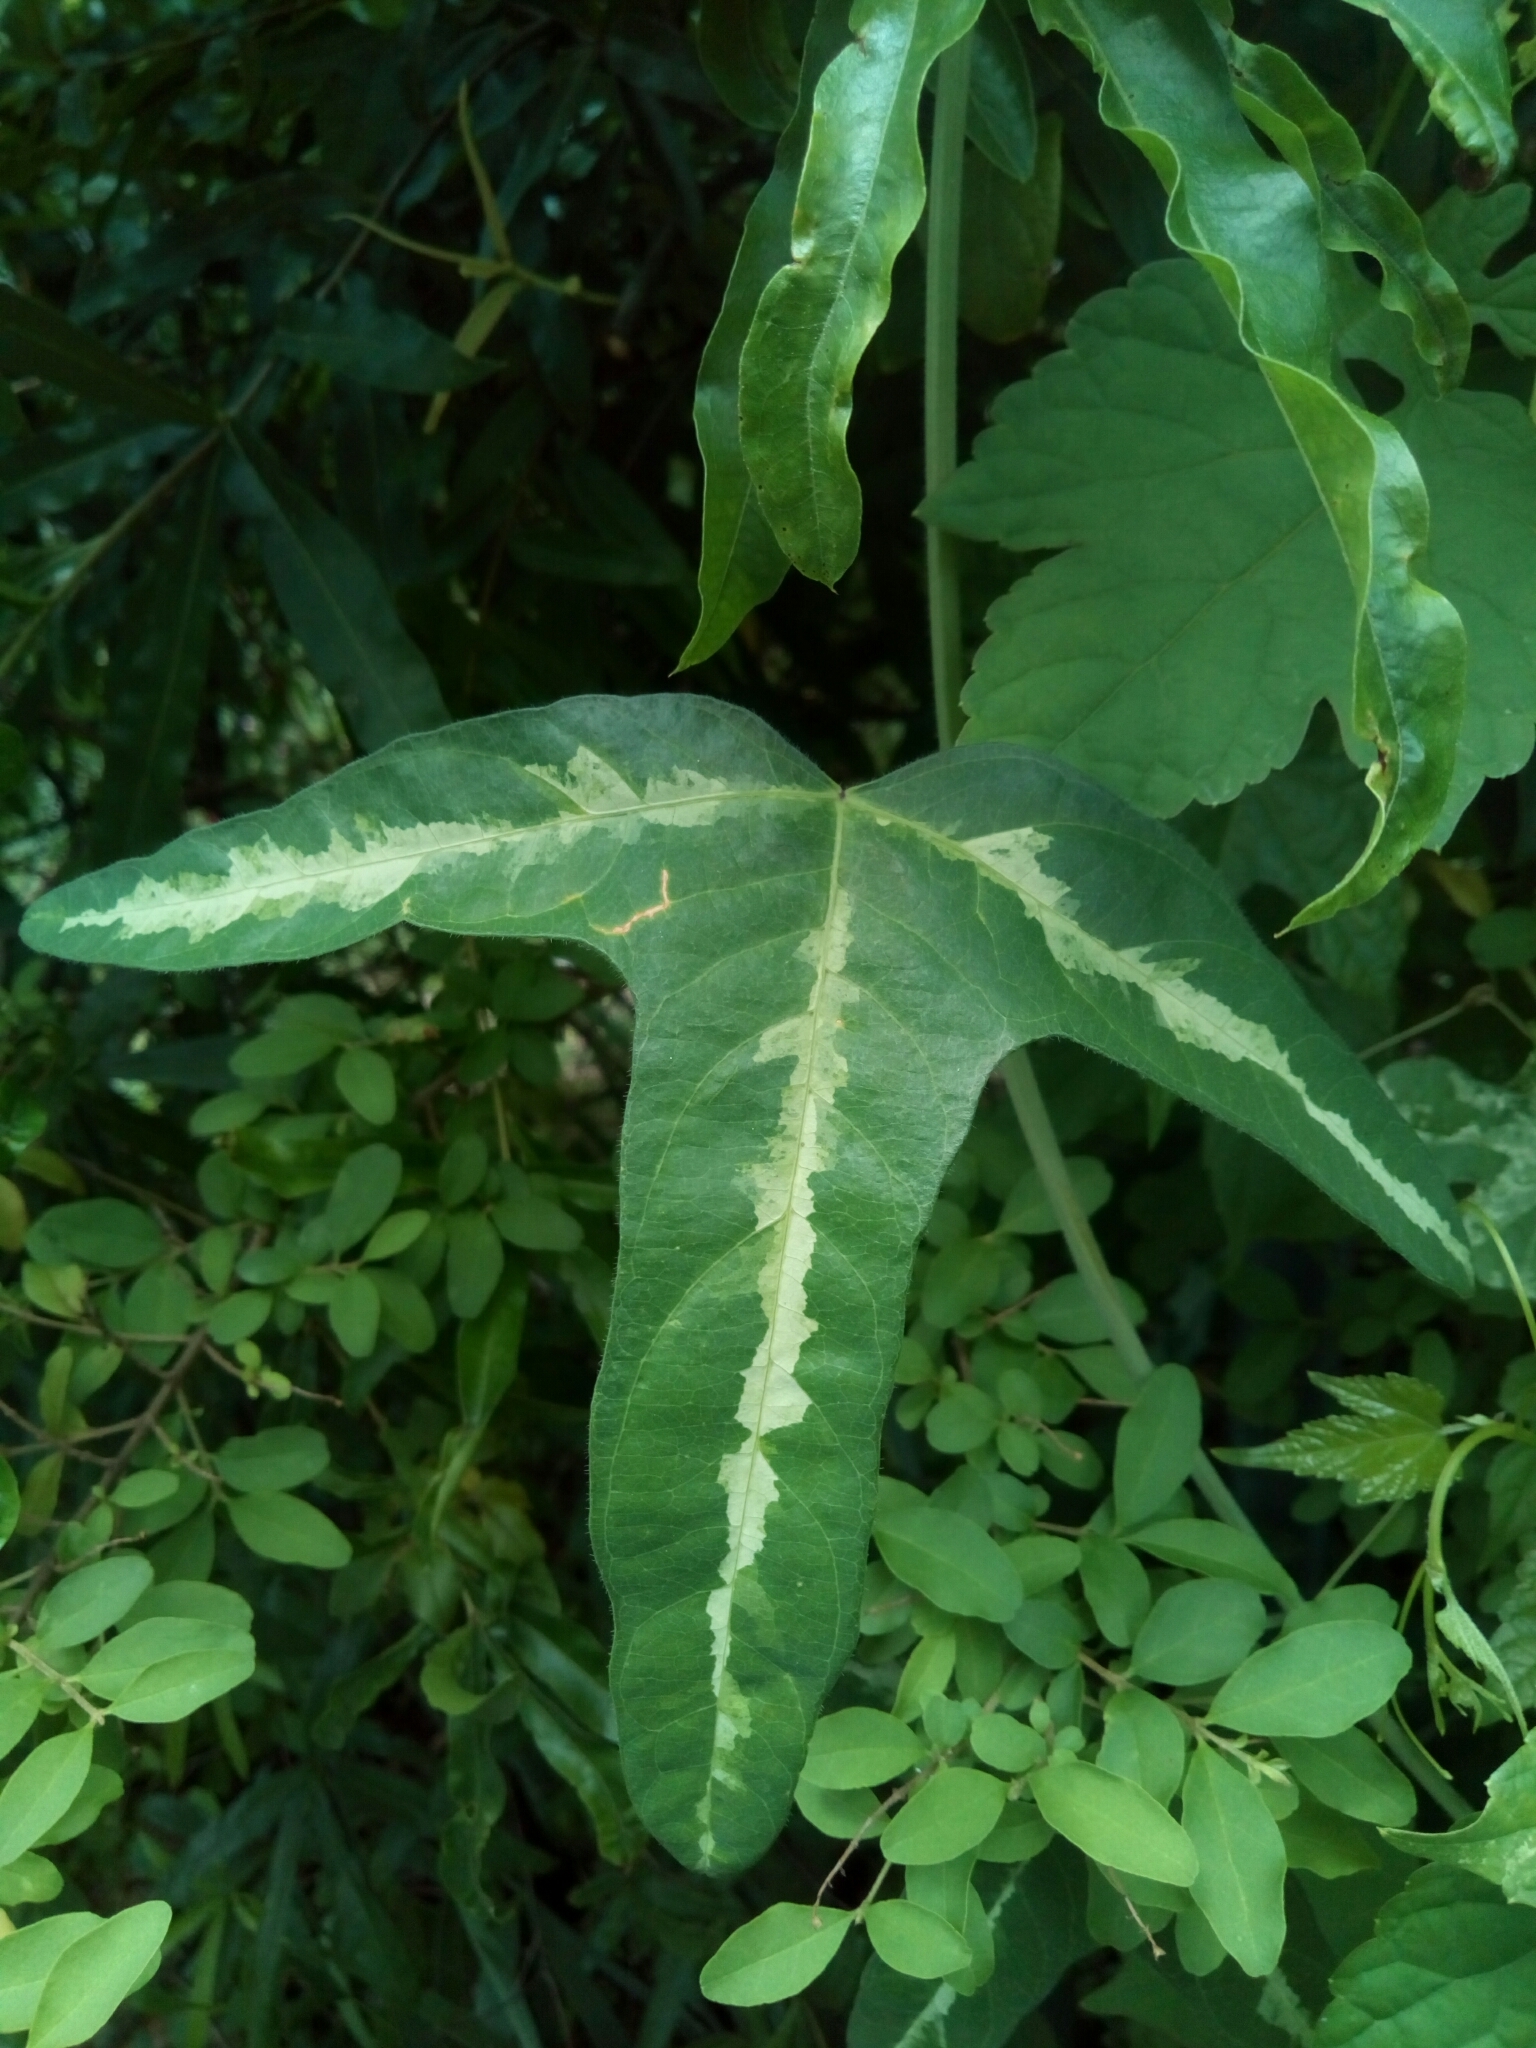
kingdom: Plantae
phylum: Tracheophyta
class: Magnoliopsida
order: Malpighiales
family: Passifloraceae
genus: Passiflora
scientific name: Passiflora lutea
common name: Yellow passionflower
